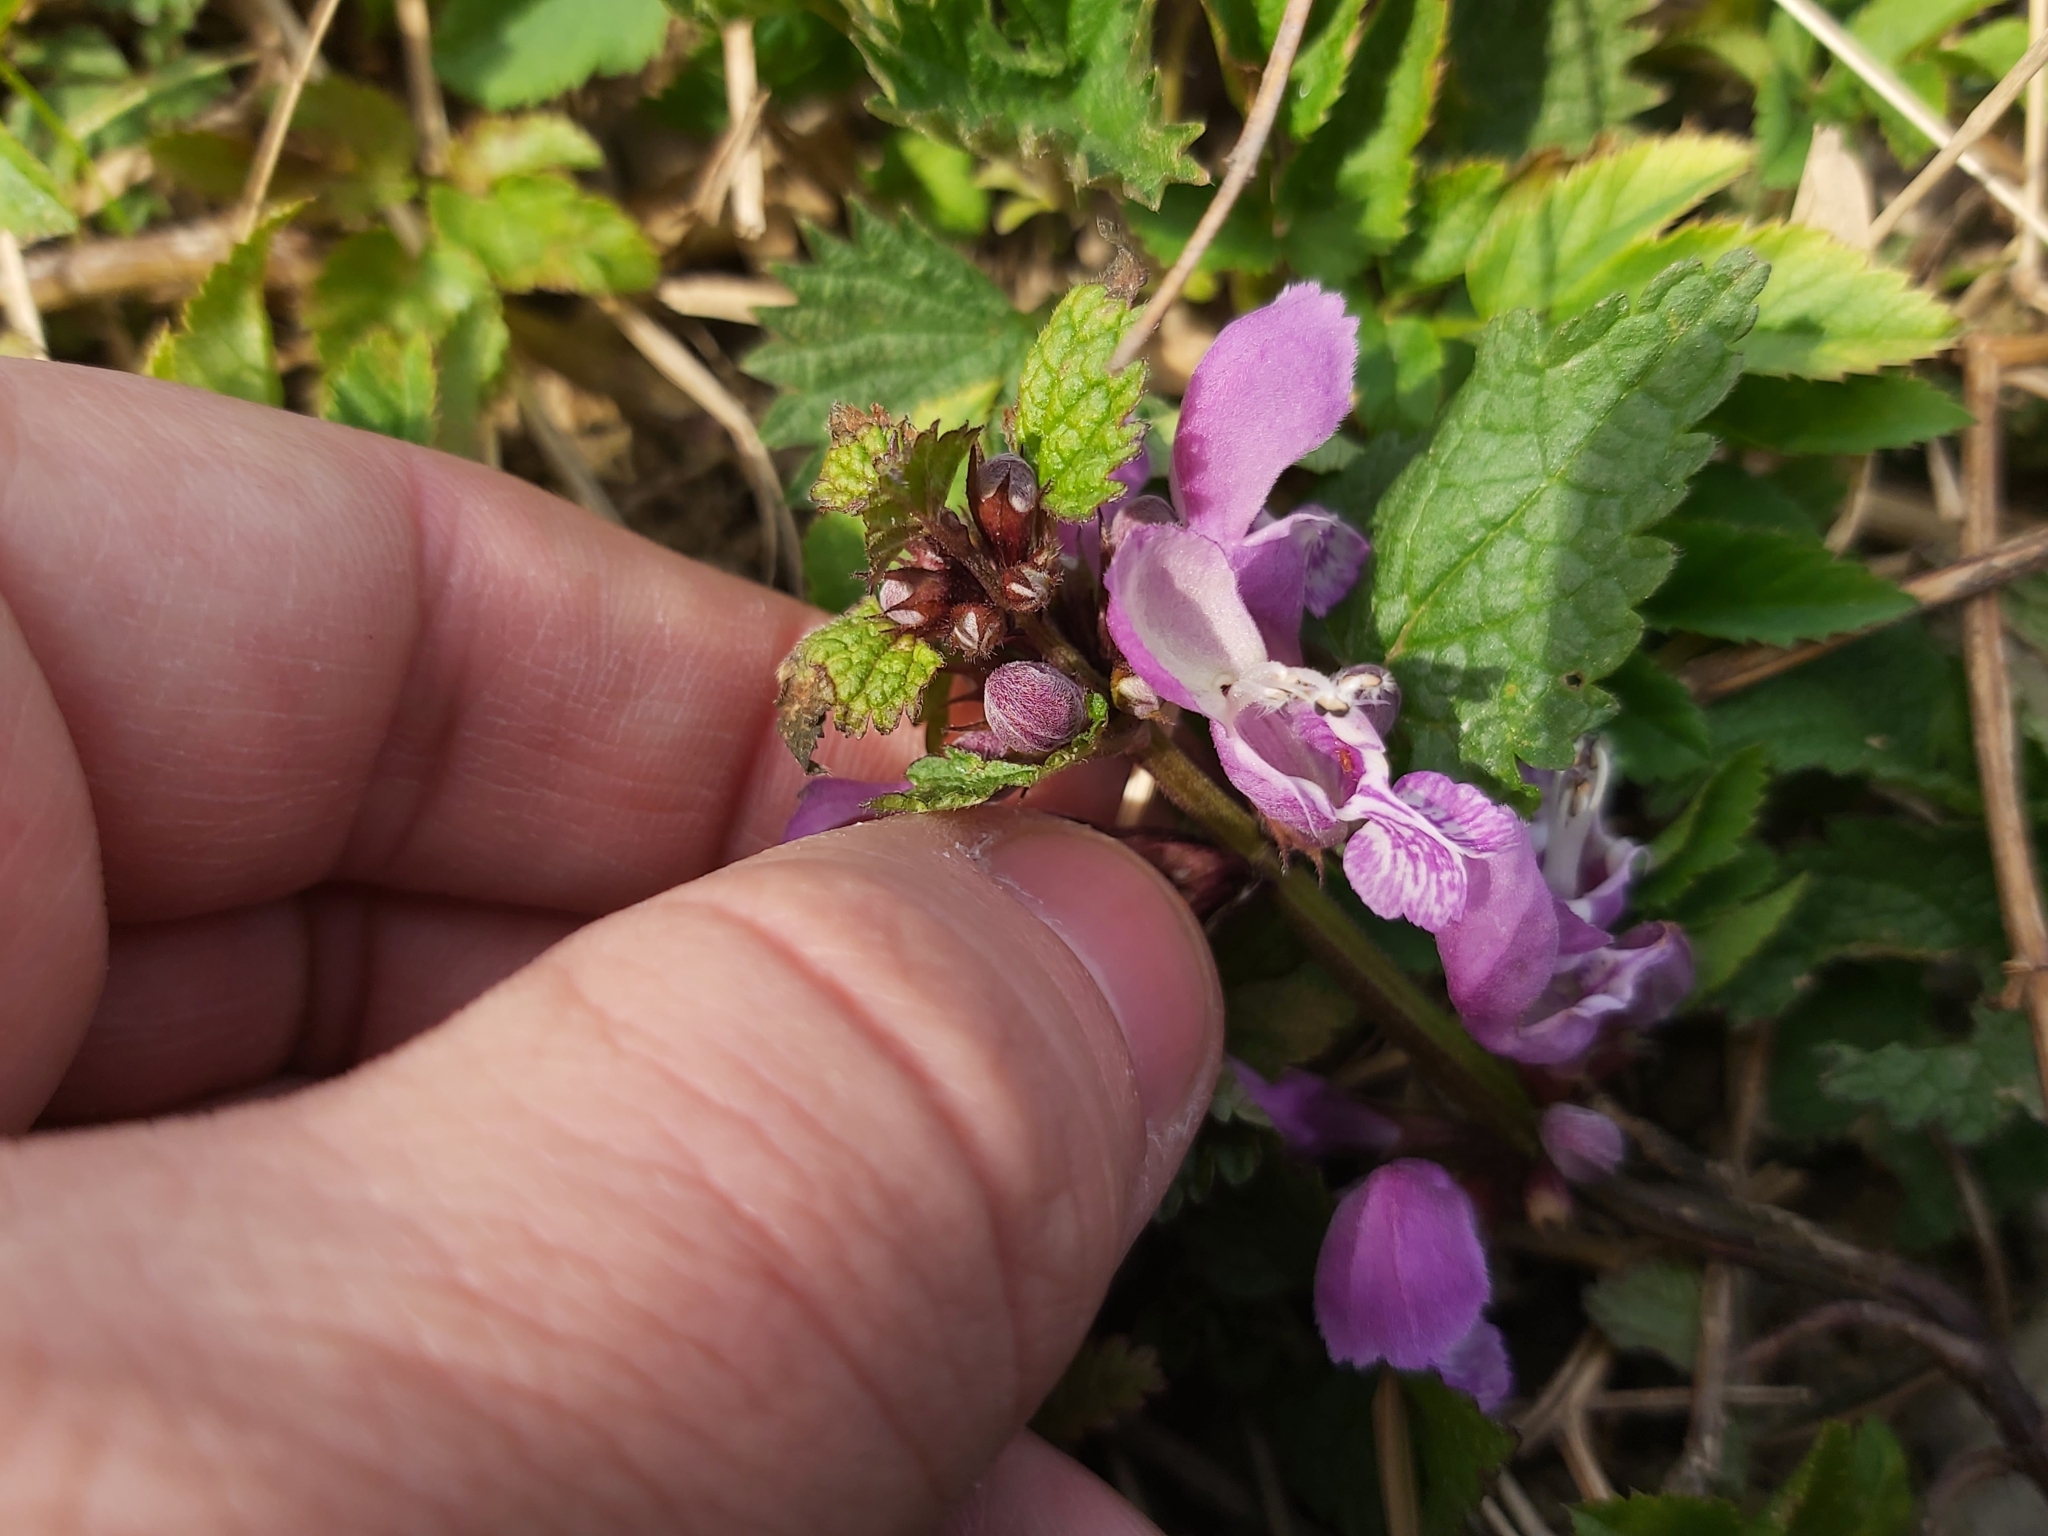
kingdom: Plantae
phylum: Tracheophyta
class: Magnoliopsida
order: Lamiales
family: Lamiaceae
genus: Lamium
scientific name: Lamium maculatum
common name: Spotted dead-nettle
